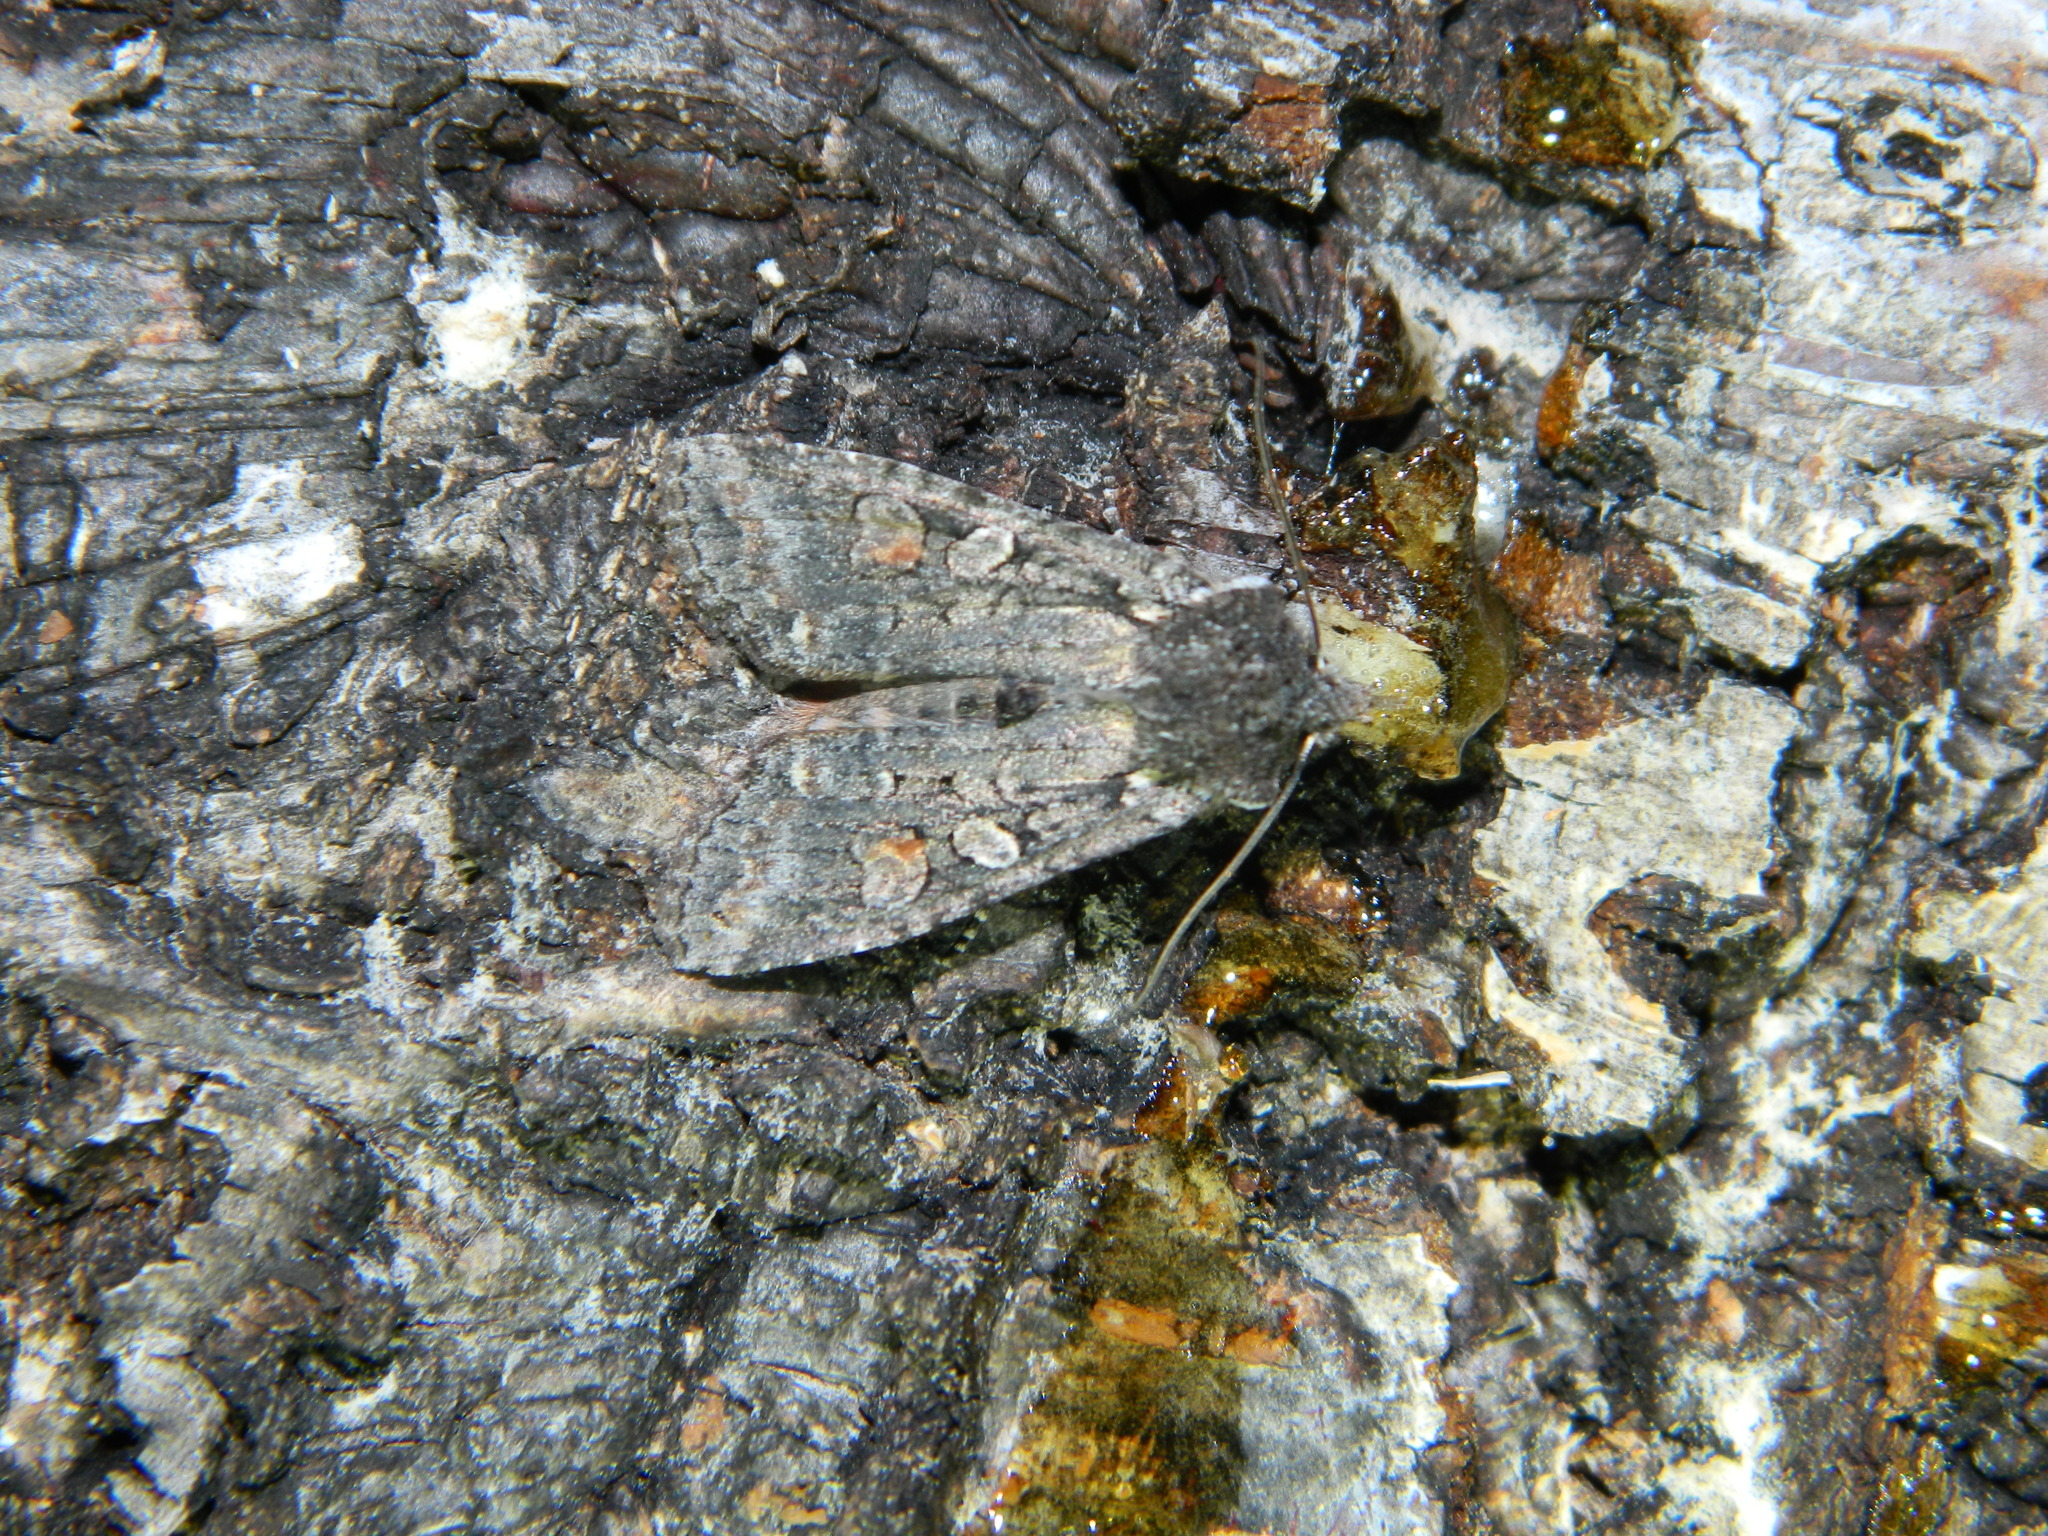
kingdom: Animalia
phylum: Arthropoda
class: Insecta
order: Lepidoptera
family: Noctuidae
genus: Lithophane
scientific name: Lithophane pexata
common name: Plush-naped pinion moth
